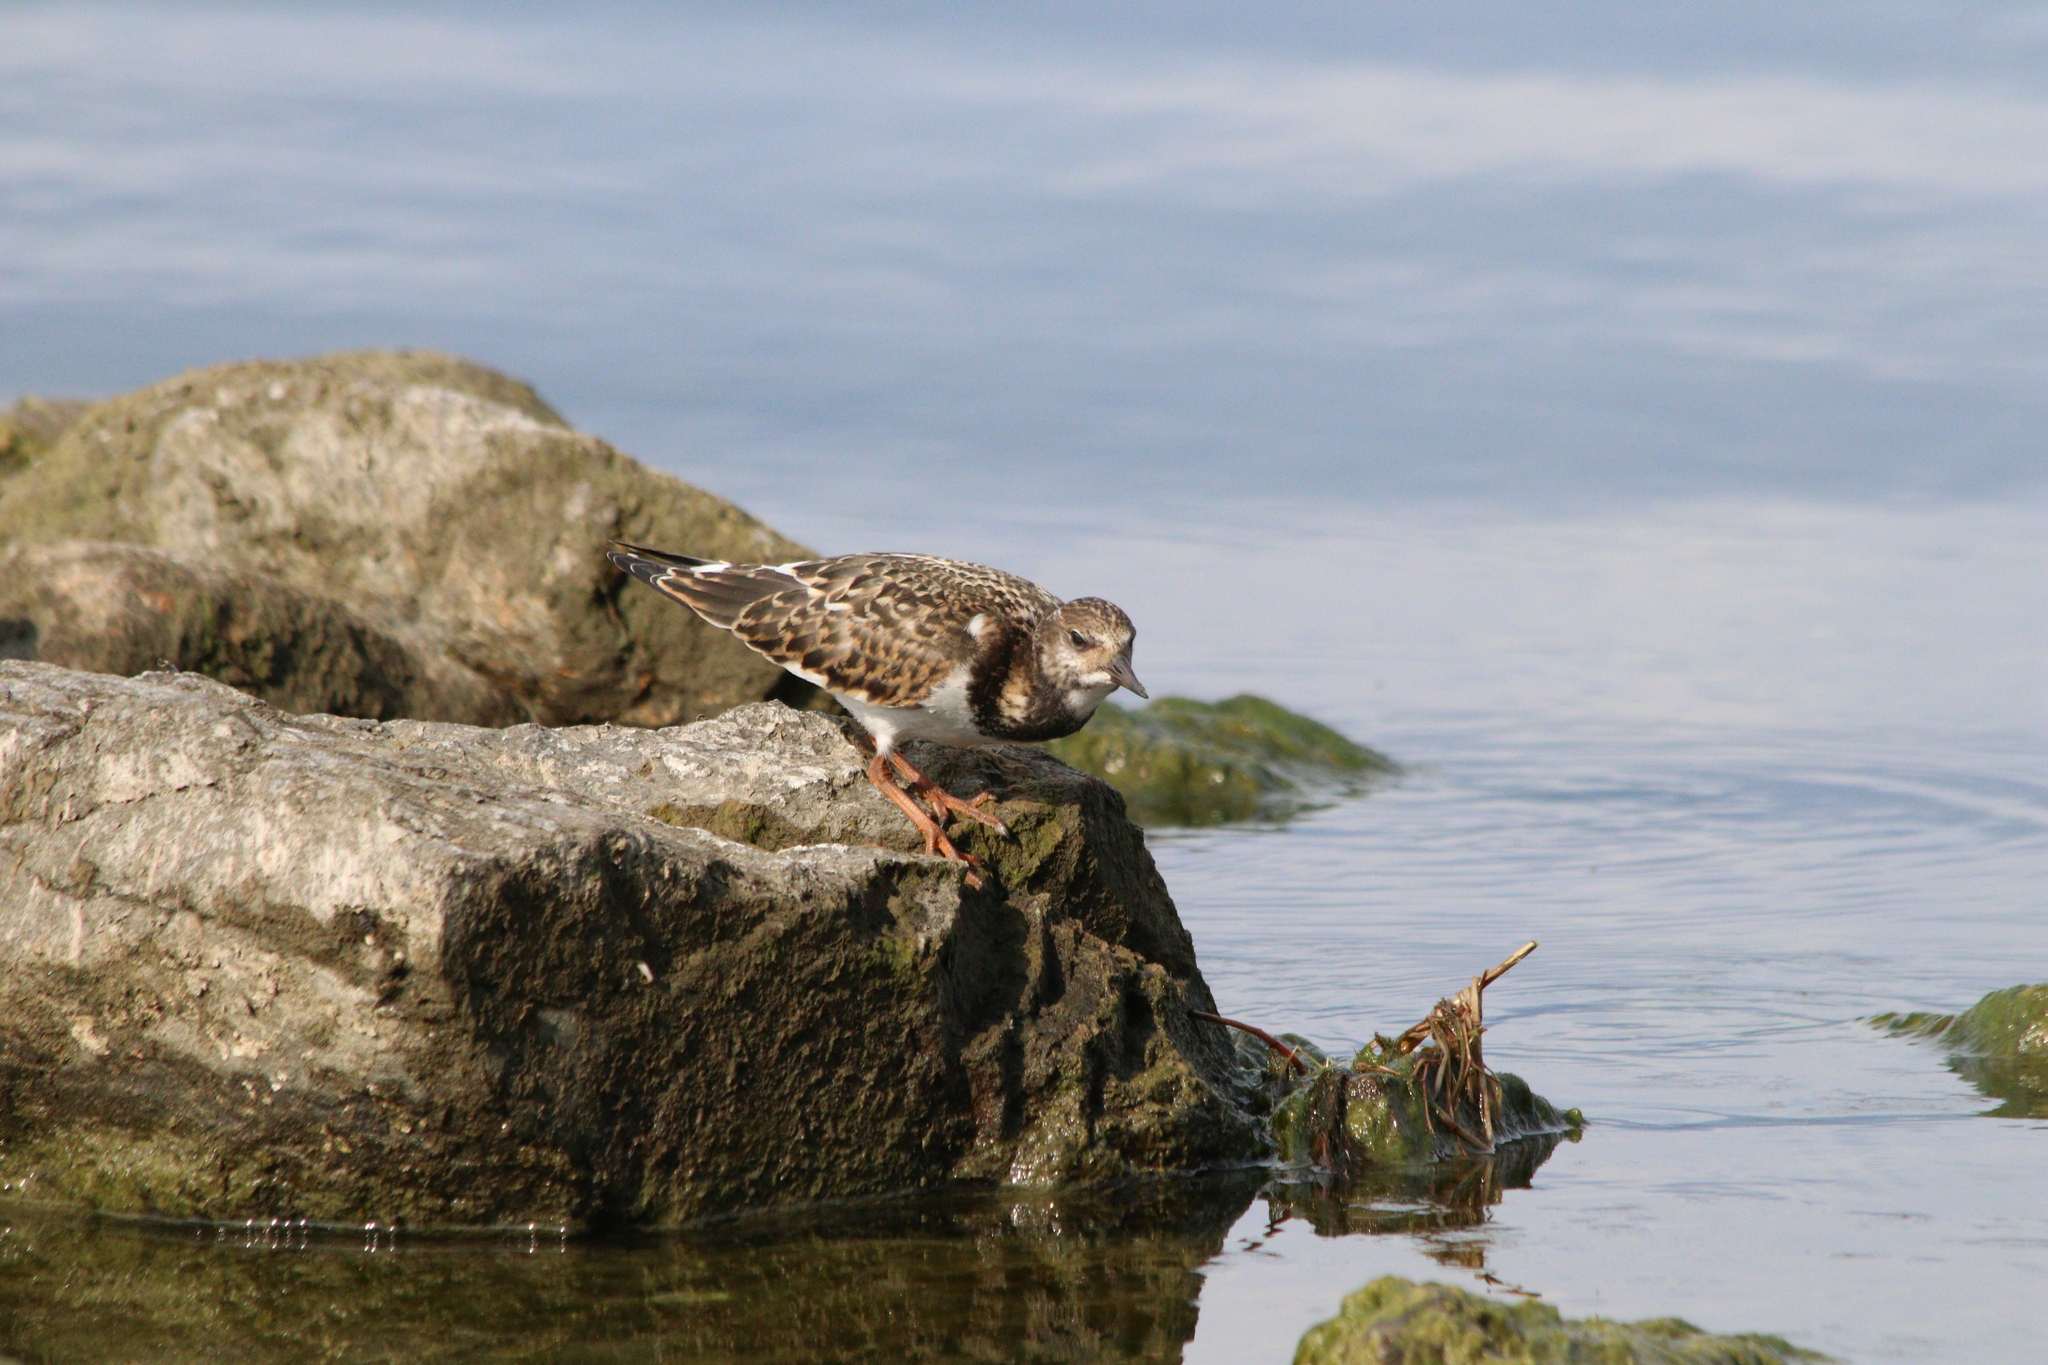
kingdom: Animalia
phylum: Chordata
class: Aves
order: Charadriiformes
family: Scolopacidae
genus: Arenaria
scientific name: Arenaria interpres
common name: Ruddy turnstone
